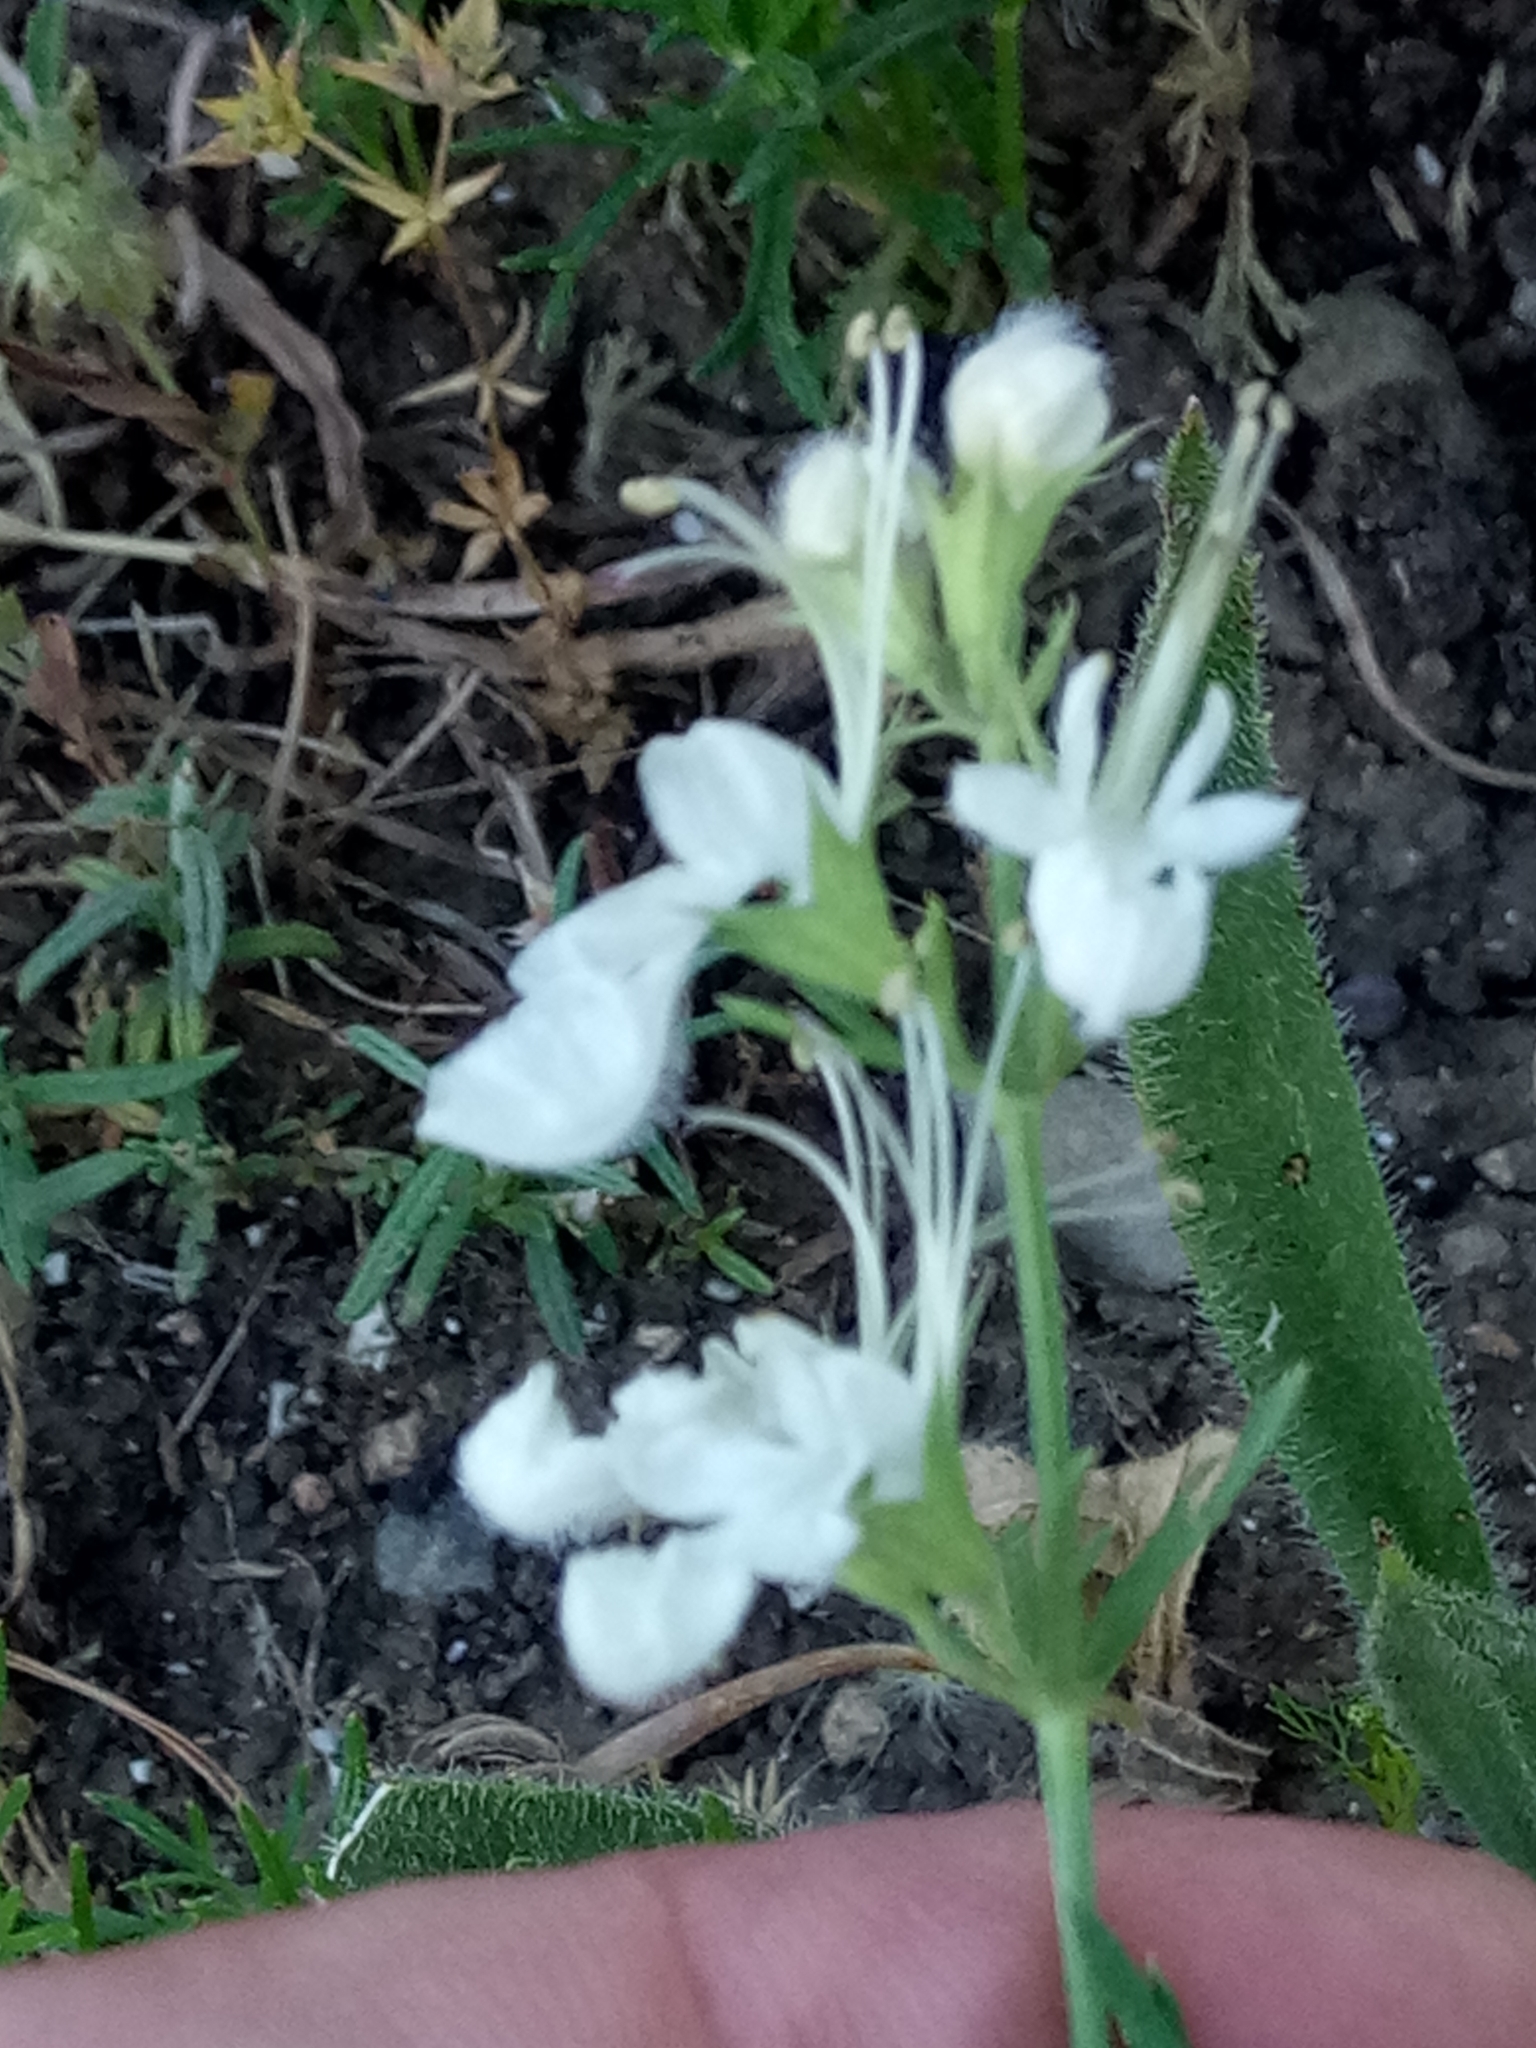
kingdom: Plantae
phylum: Tracheophyta
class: Magnoliopsida
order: Lamiales
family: Lamiaceae
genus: Teucrium
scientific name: Teucrium pseudochamaepitys
